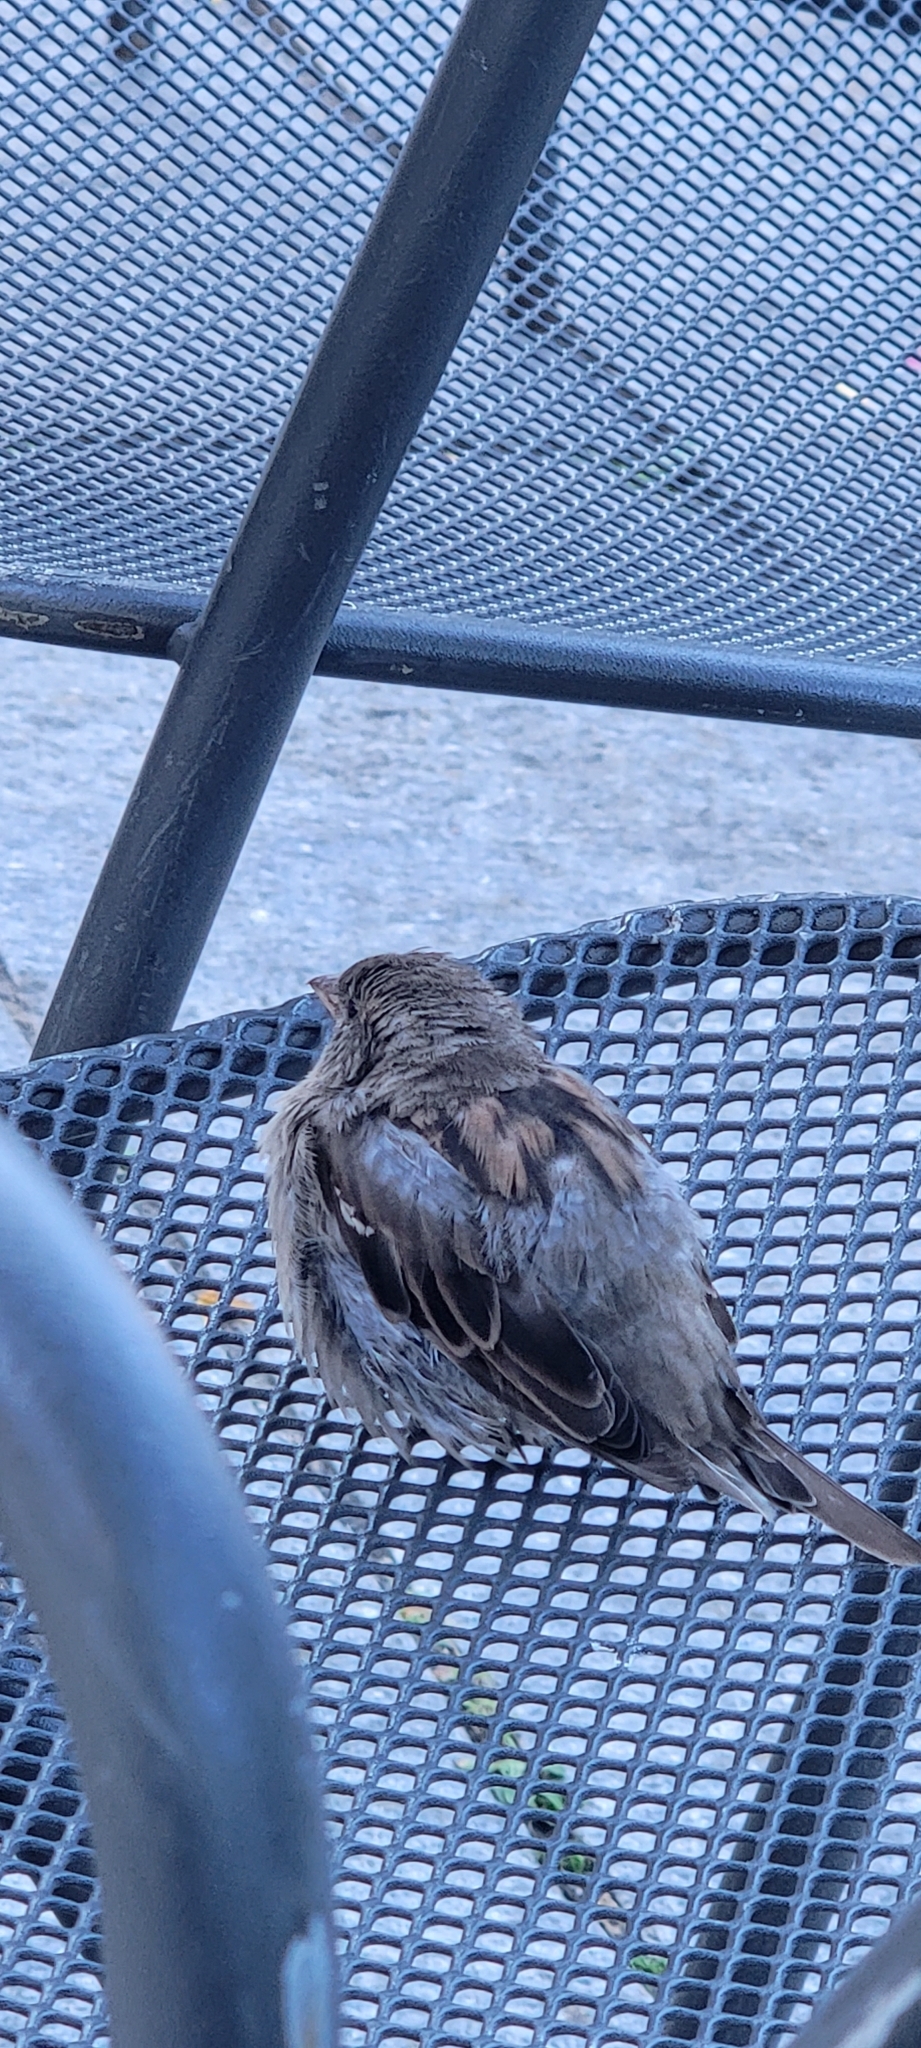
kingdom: Animalia
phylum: Chordata
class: Aves
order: Passeriformes
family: Passeridae
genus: Passer
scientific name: Passer domesticus
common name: House sparrow
